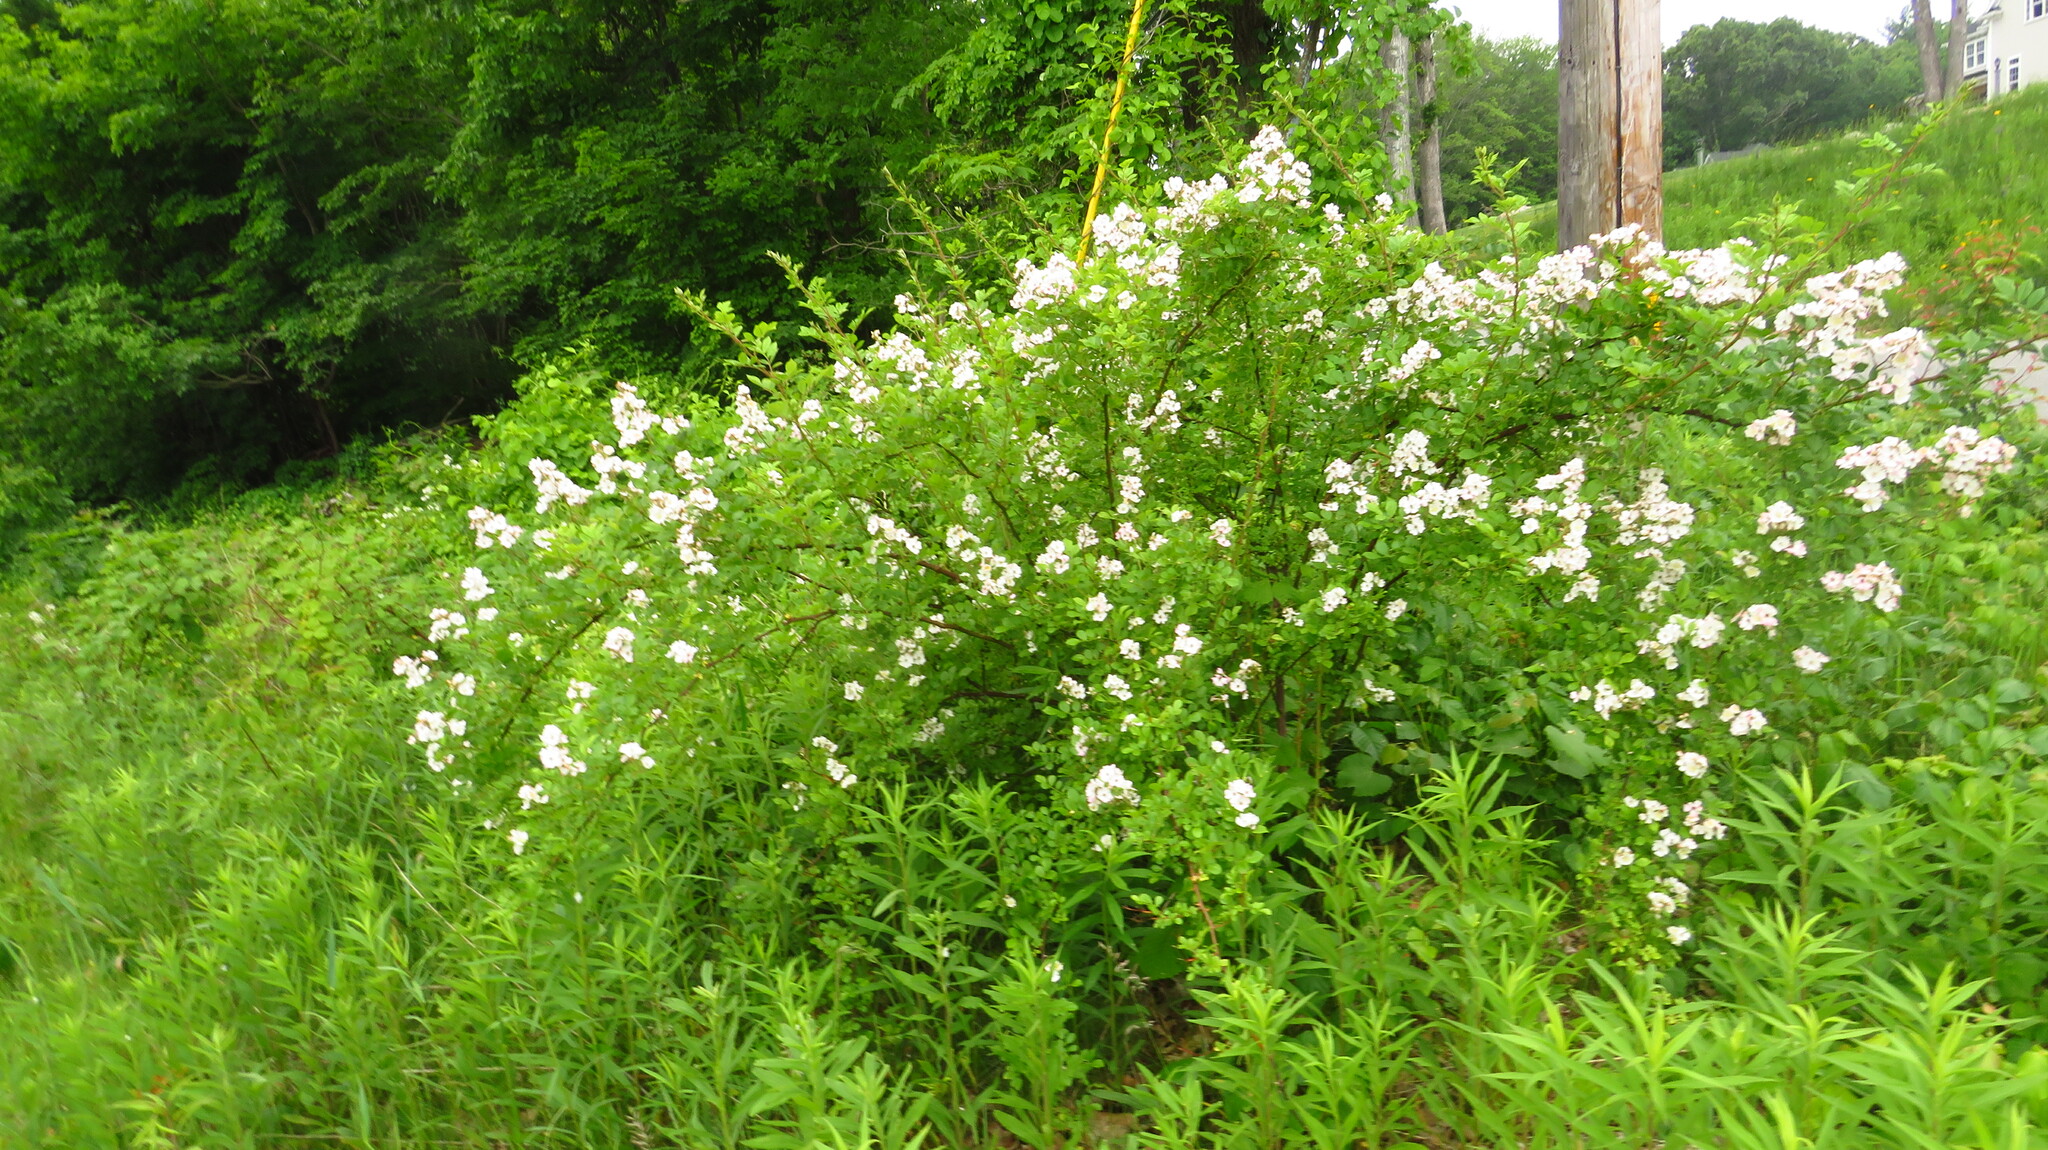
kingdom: Plantae
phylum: Tracheophyta
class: Magnoliopsida
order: Rosales
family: Rosaceae
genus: Rosa
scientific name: Rosa multiflora
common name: Multiflora rose
